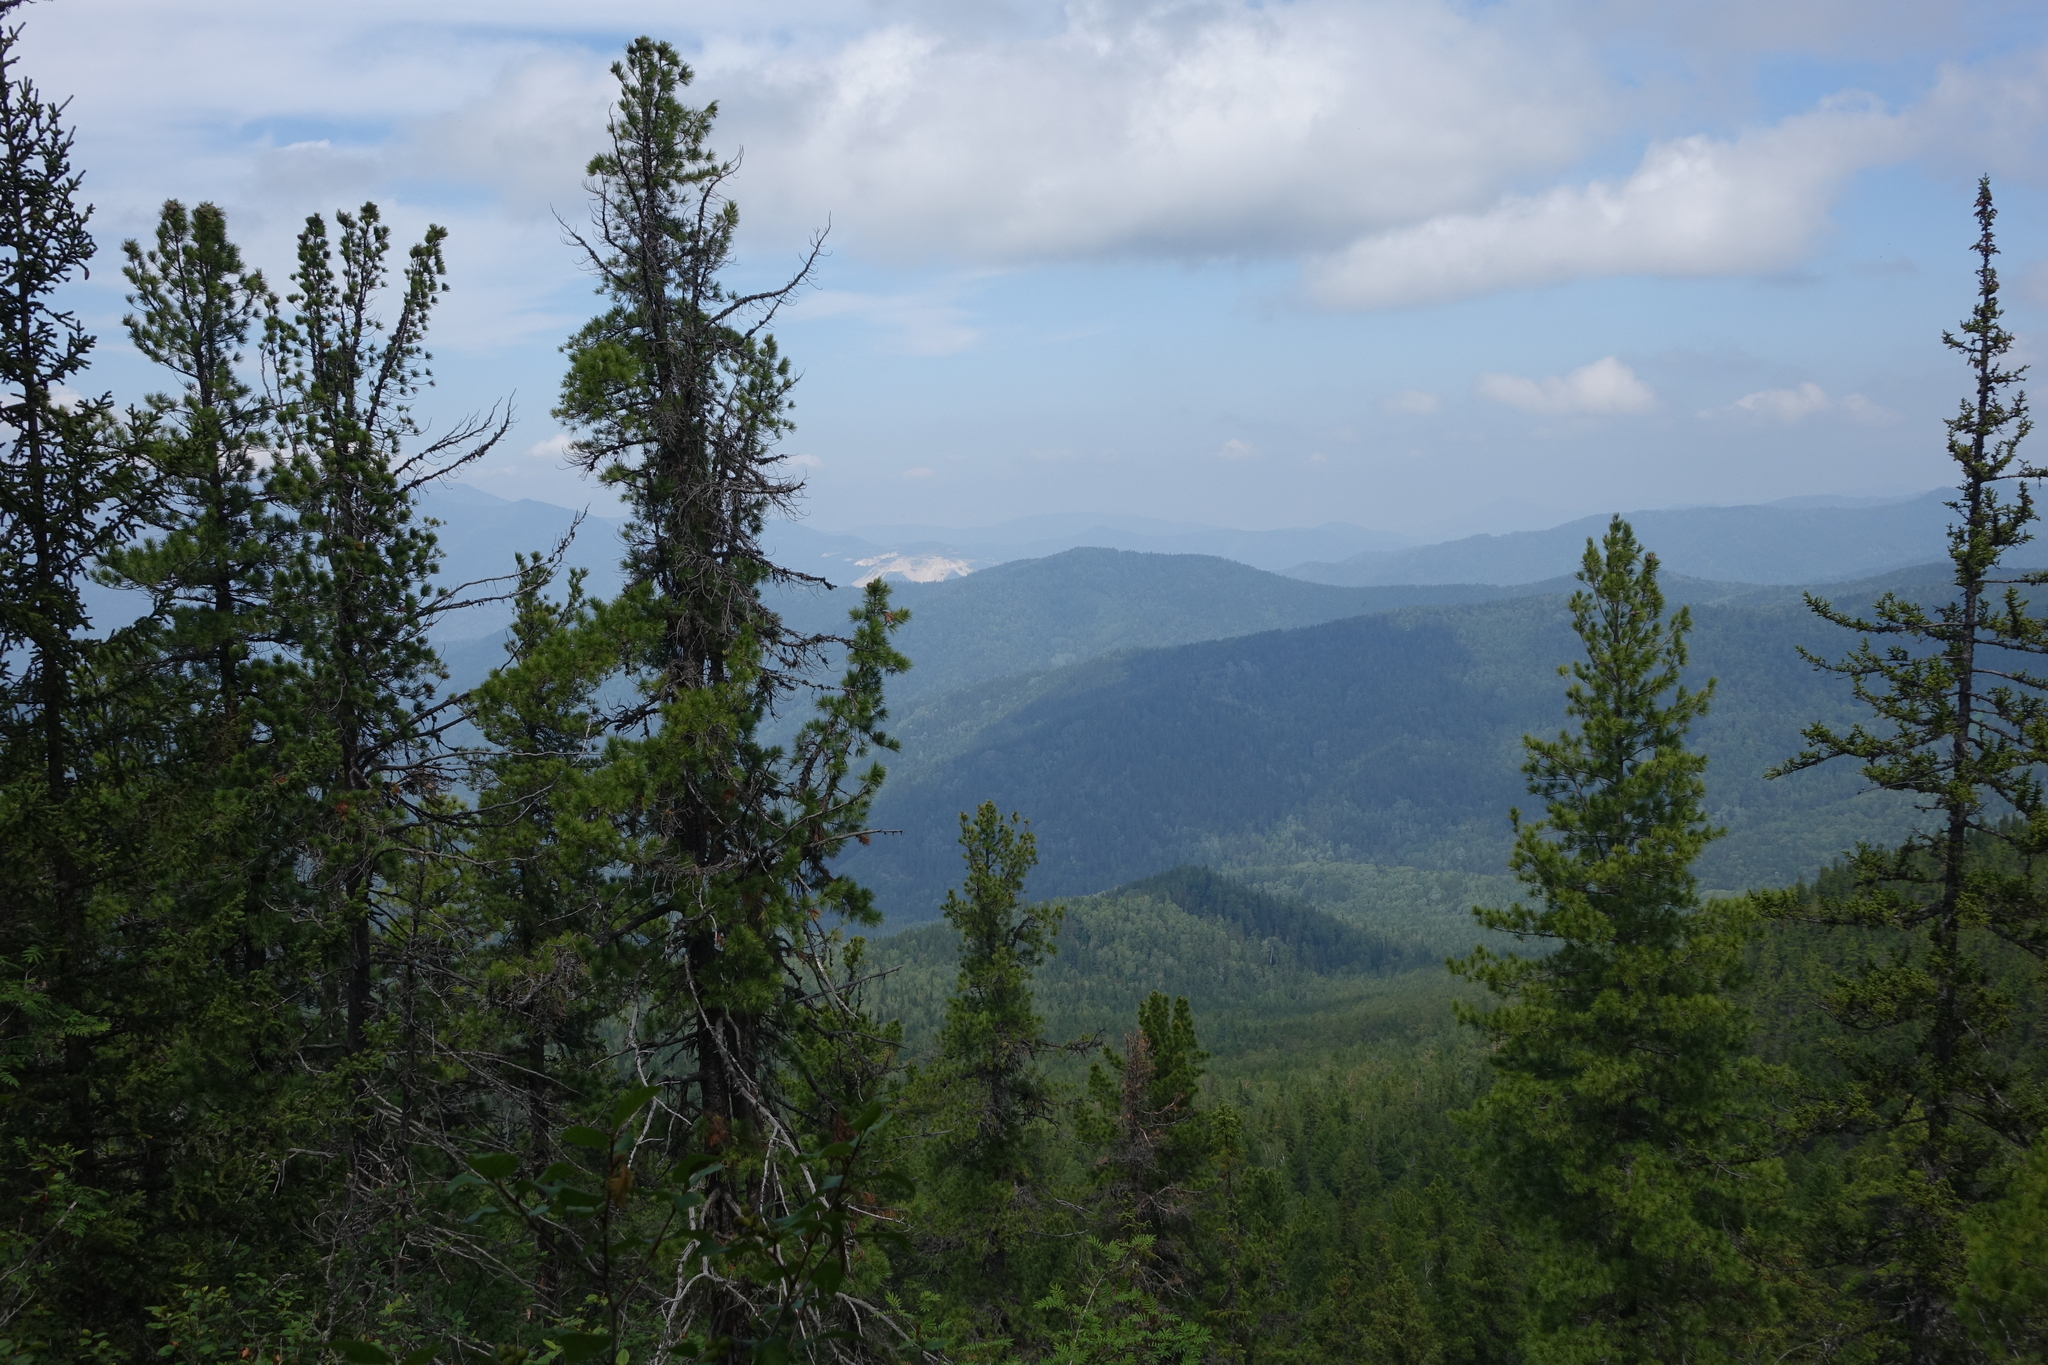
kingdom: Plantae
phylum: Tracheophyta
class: Pinopsida
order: Pinales
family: Pinaceae
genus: Pinus
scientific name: Pinus sibirica
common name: Siberian pine
